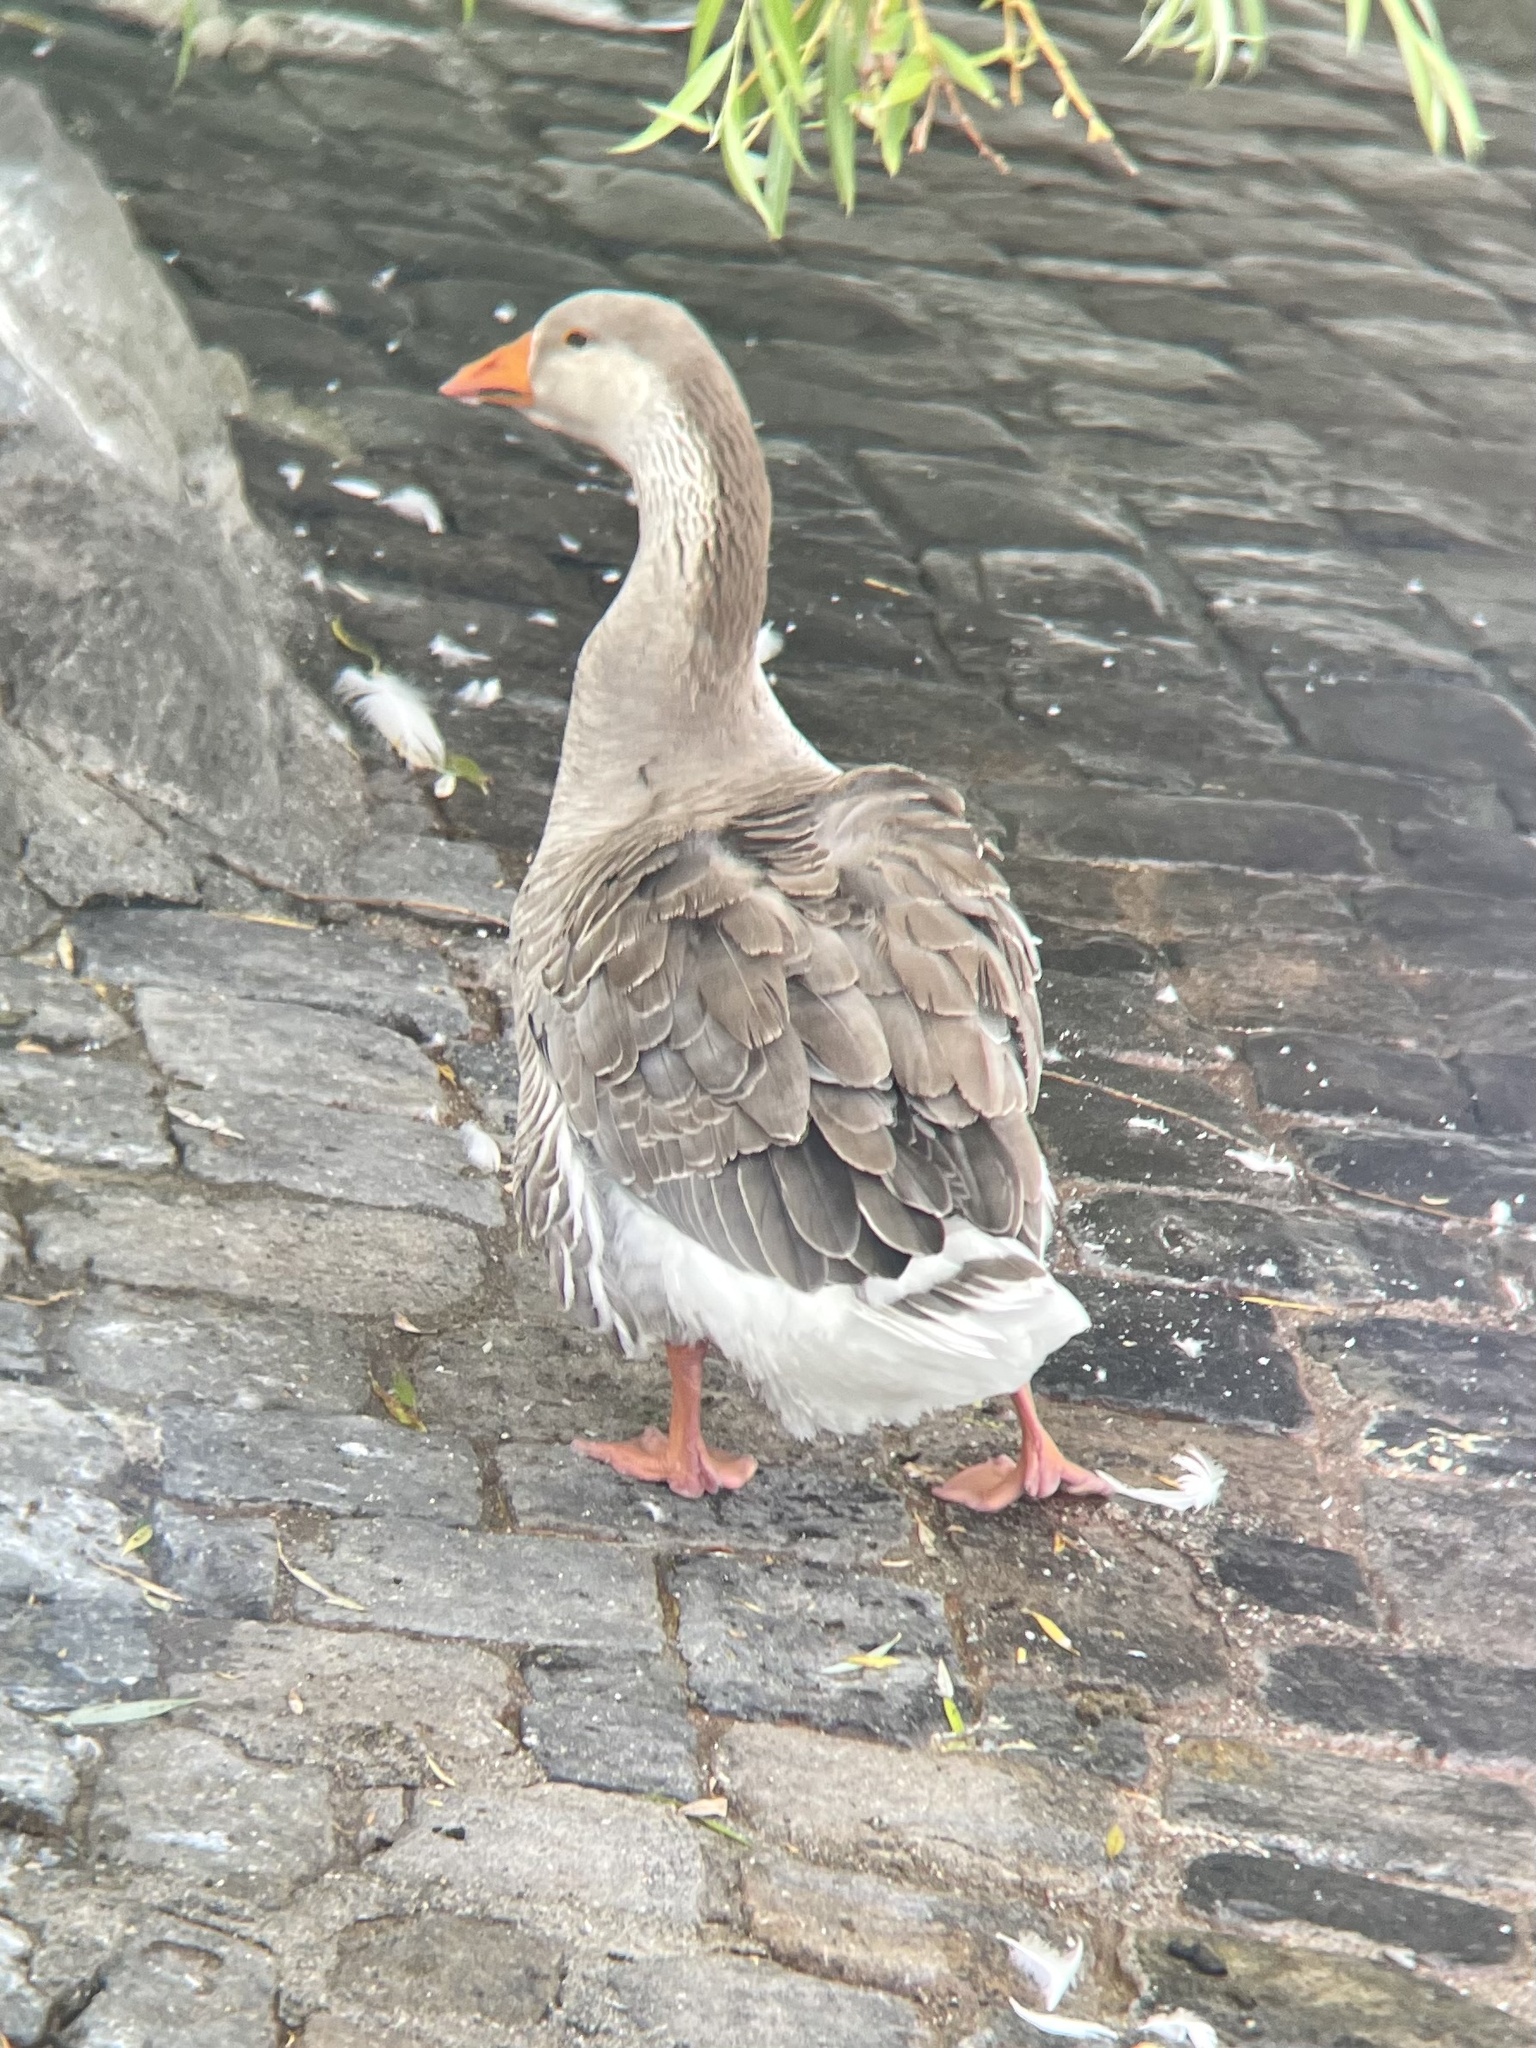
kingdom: Animalia
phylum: Chordata
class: Aves
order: Anseriformes
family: Anatidae
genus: Anser
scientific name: Anser
